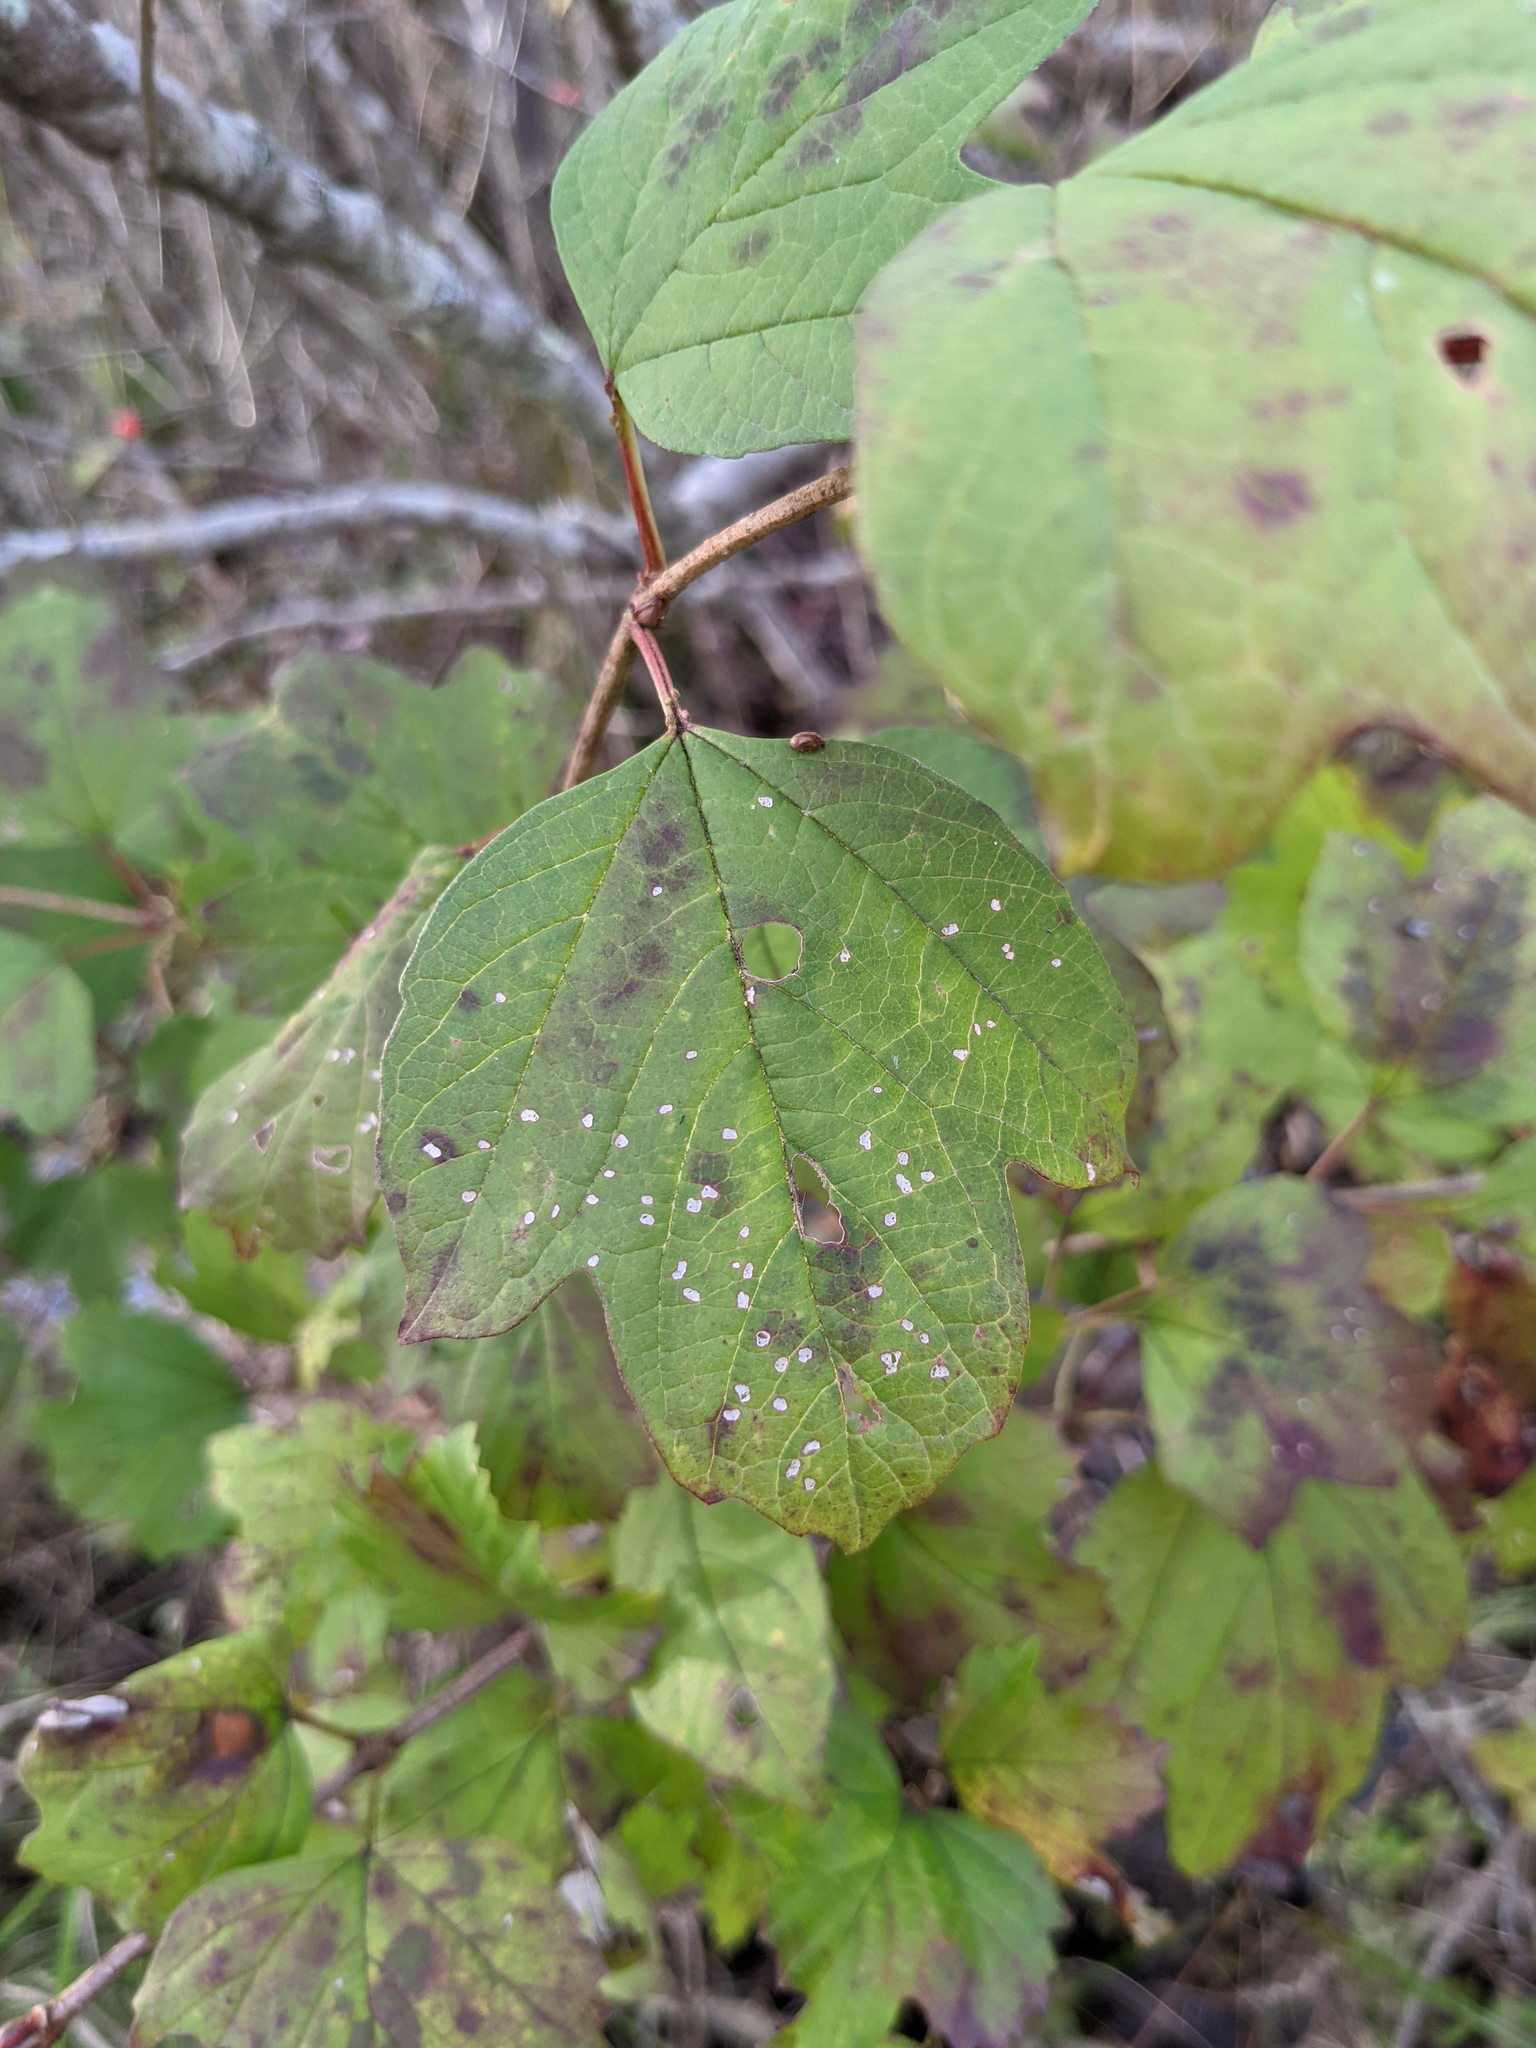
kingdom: Plantae
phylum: Tracheophyta
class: Magnoliopsida
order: Dipsacales
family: Viburnaceae
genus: Viburnum
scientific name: Viburnum opulus
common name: Guelder-rose
